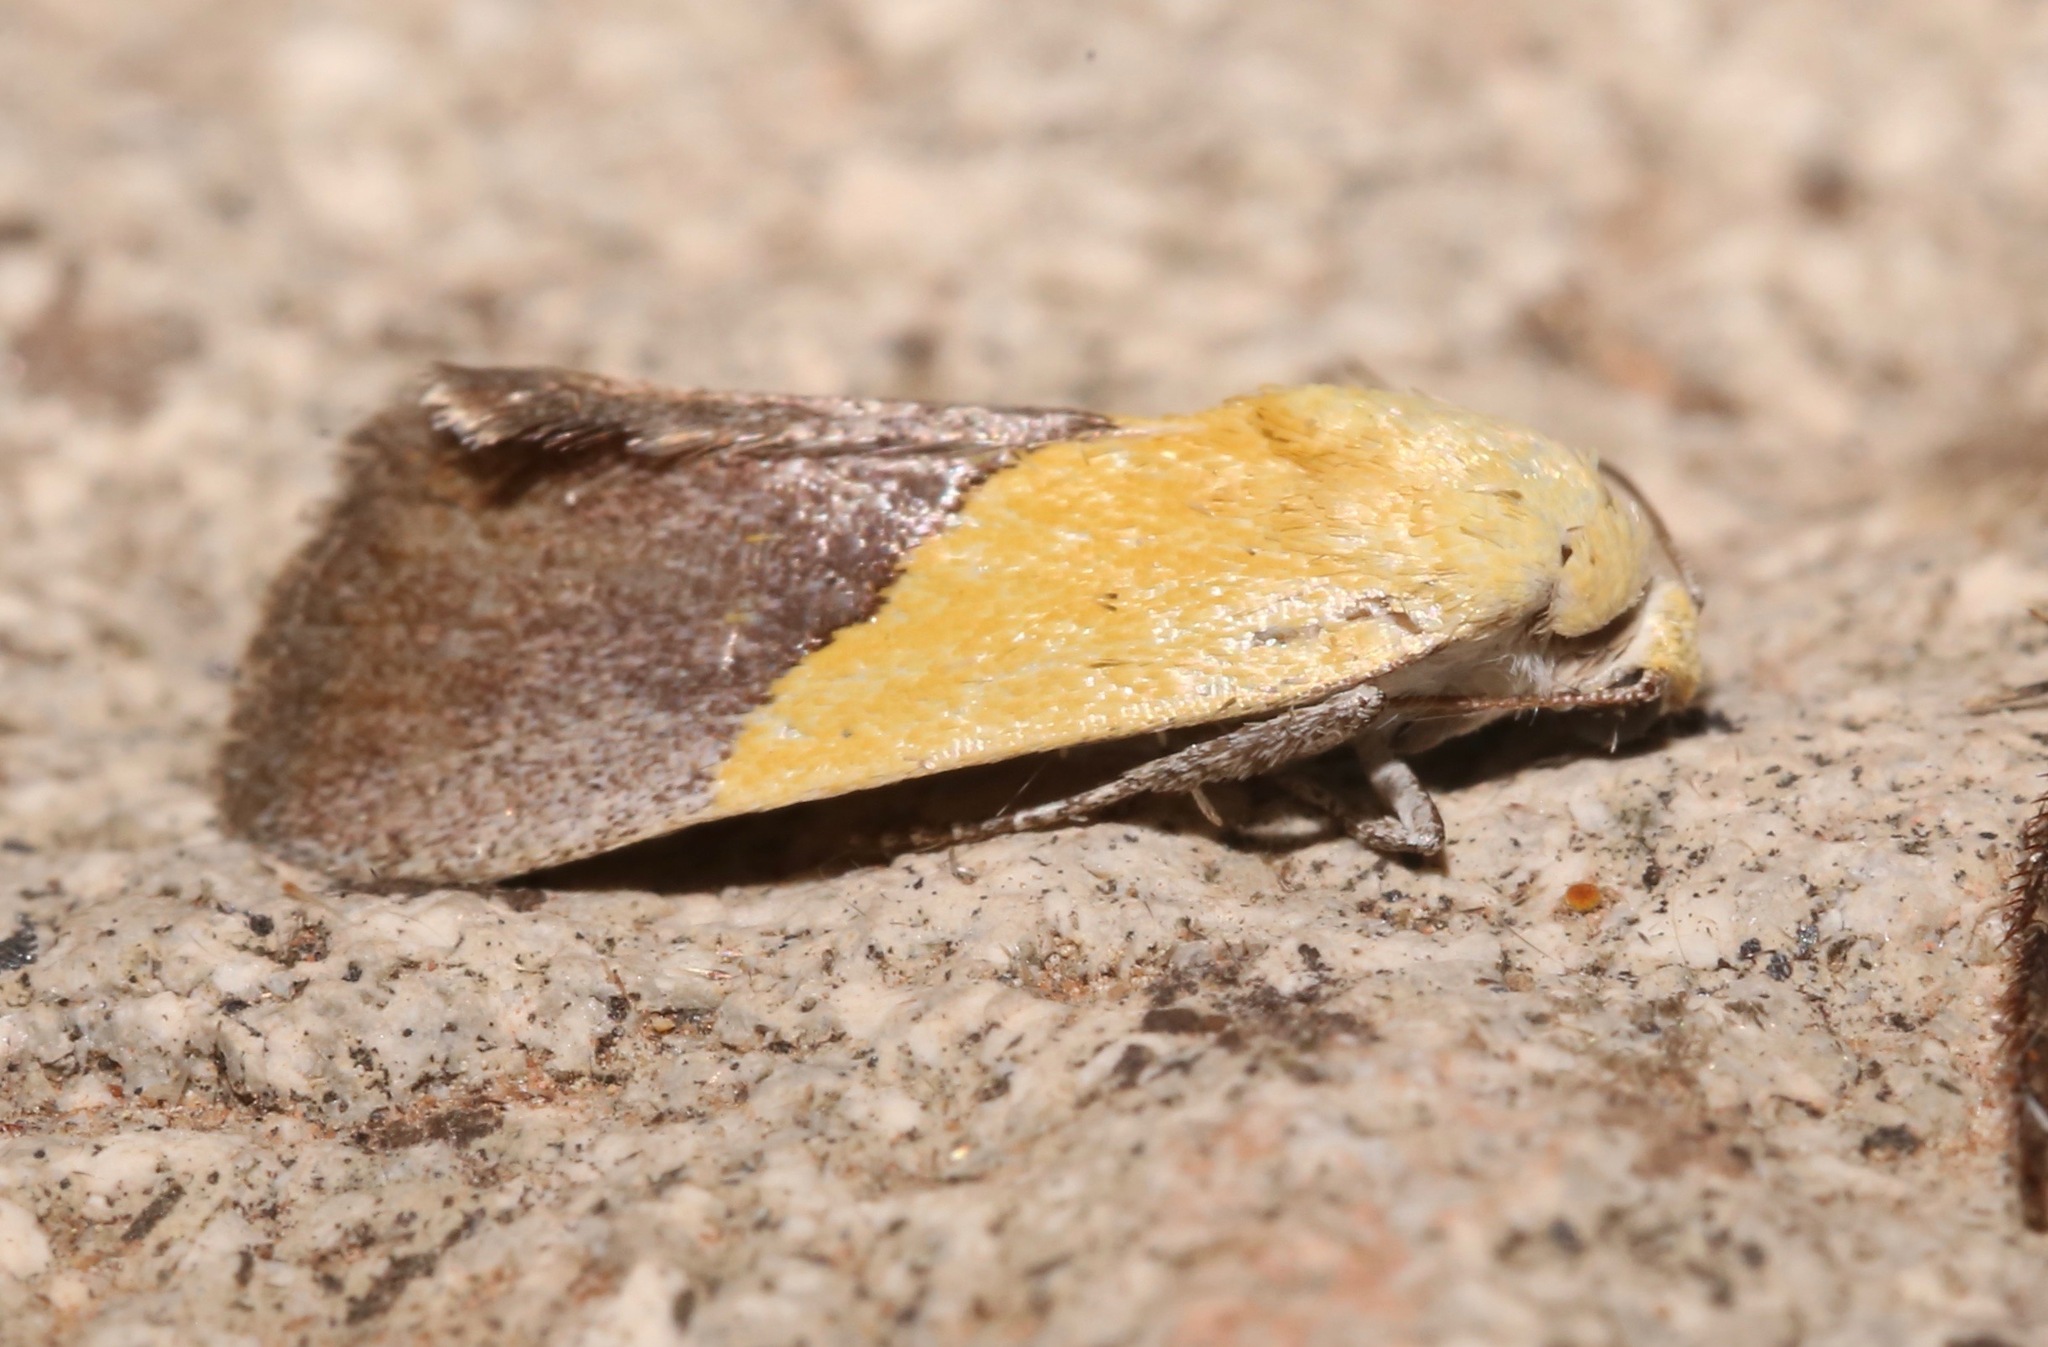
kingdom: Animalia
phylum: Arthropoda
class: Insecta
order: Lepidoptera
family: Noctuidae
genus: Acontia
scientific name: Acontia semiflava
